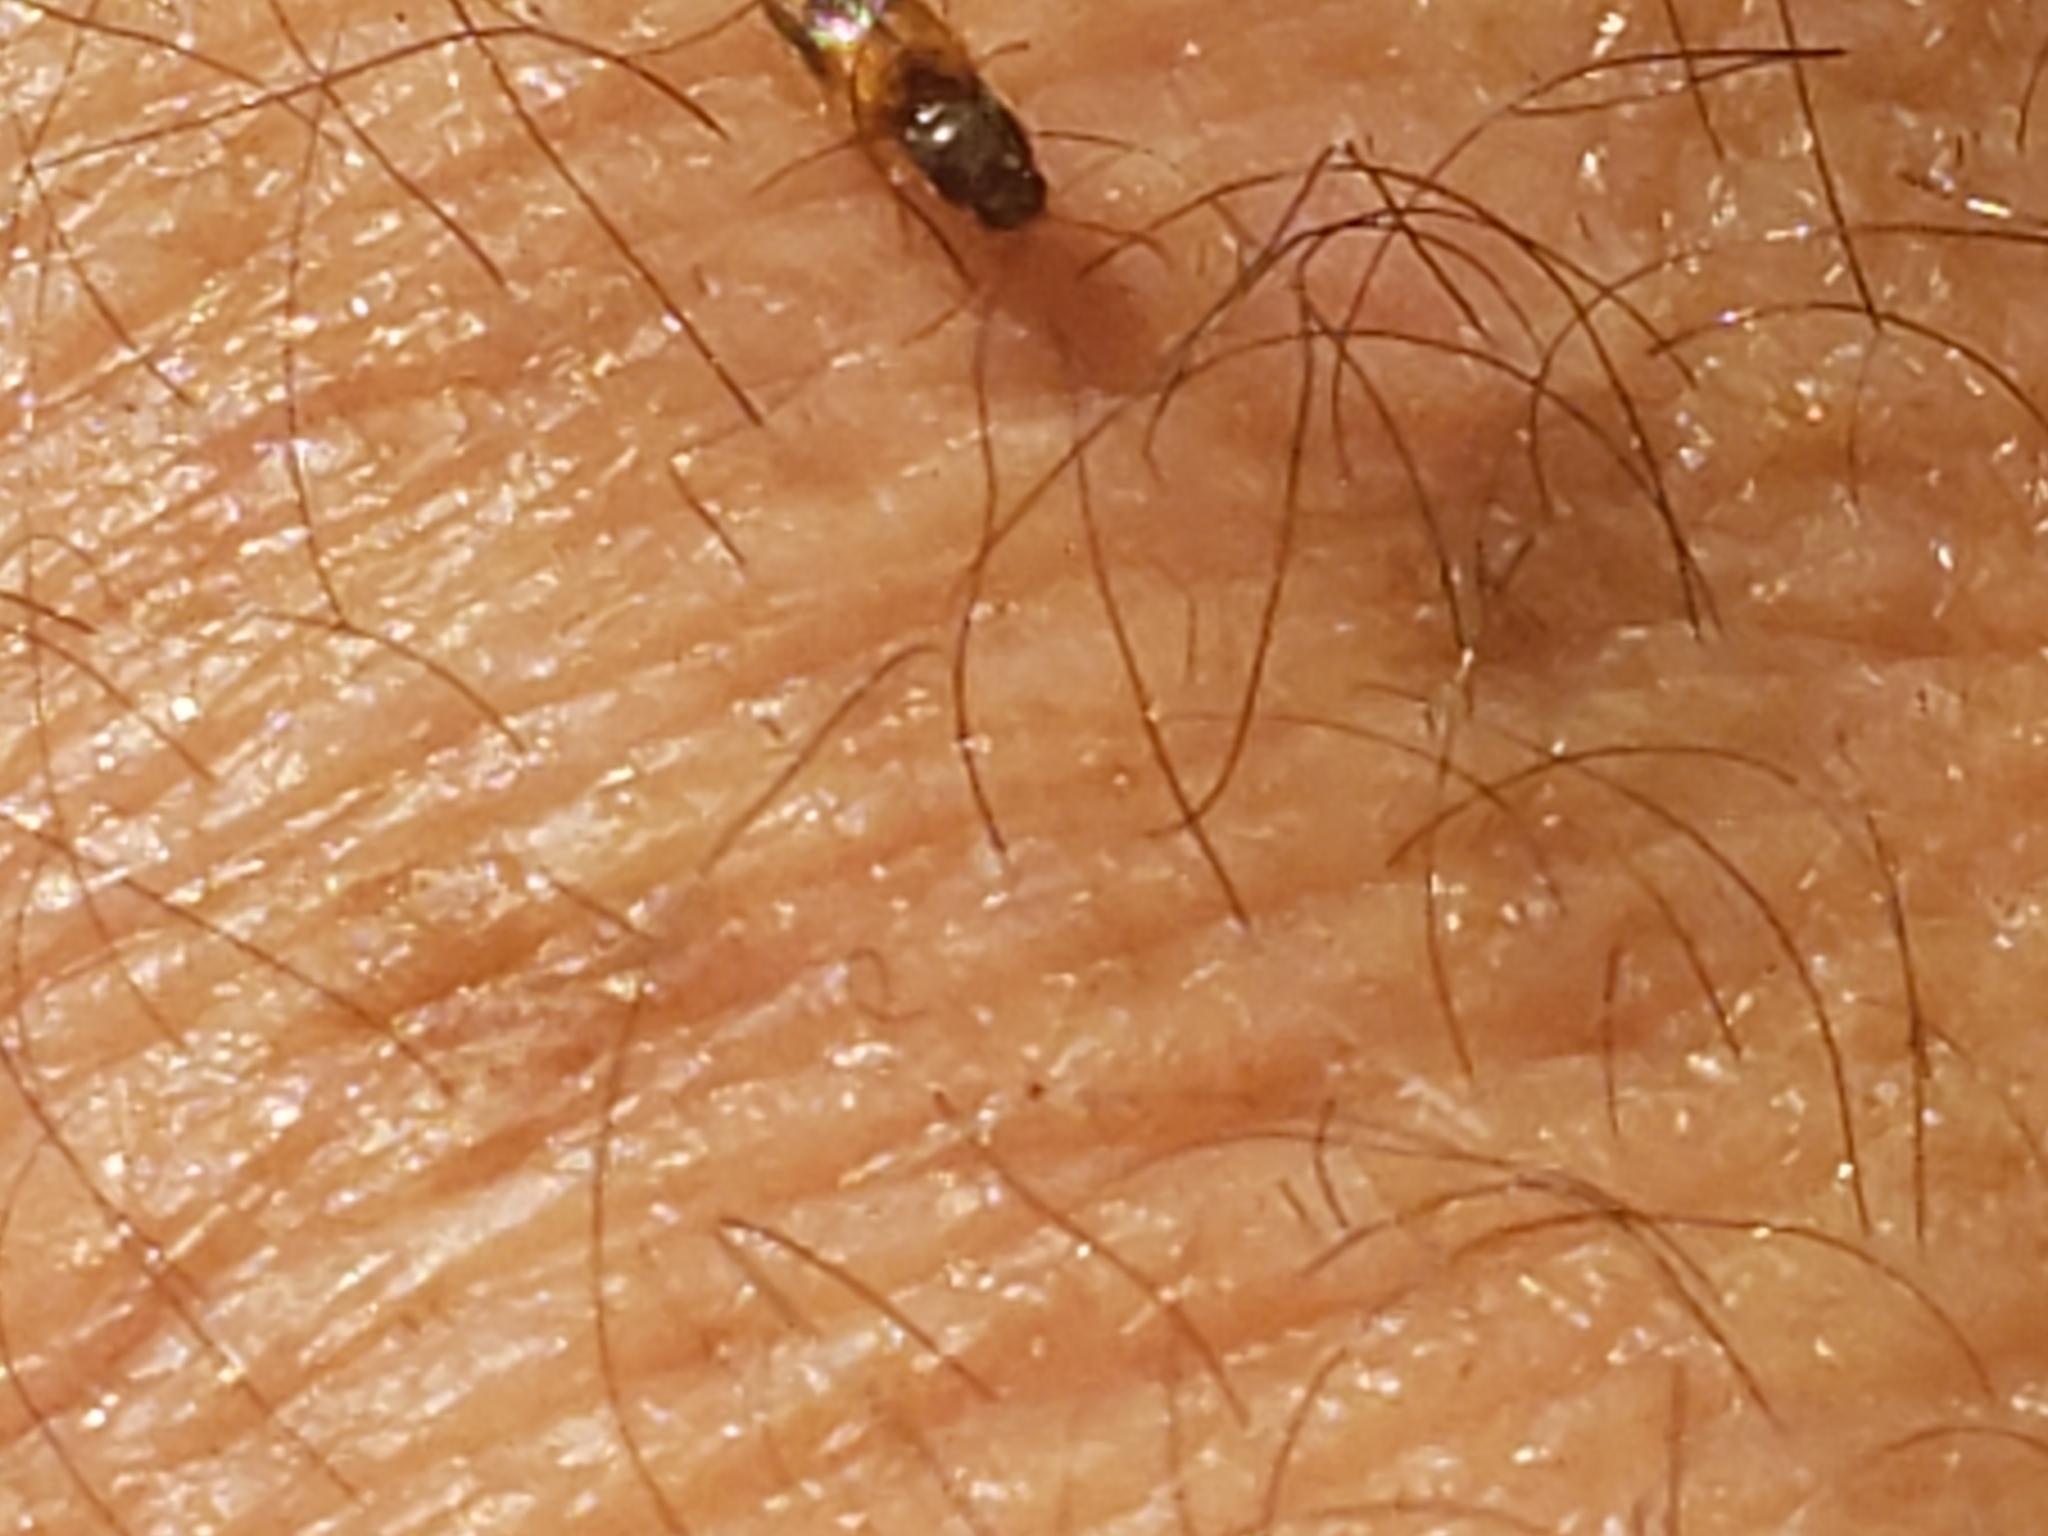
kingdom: Animalia
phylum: Arthropoda
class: Insecta
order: Coleoptera
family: Elateridae
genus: Horistonotus
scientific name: Horistonotus curiatus
